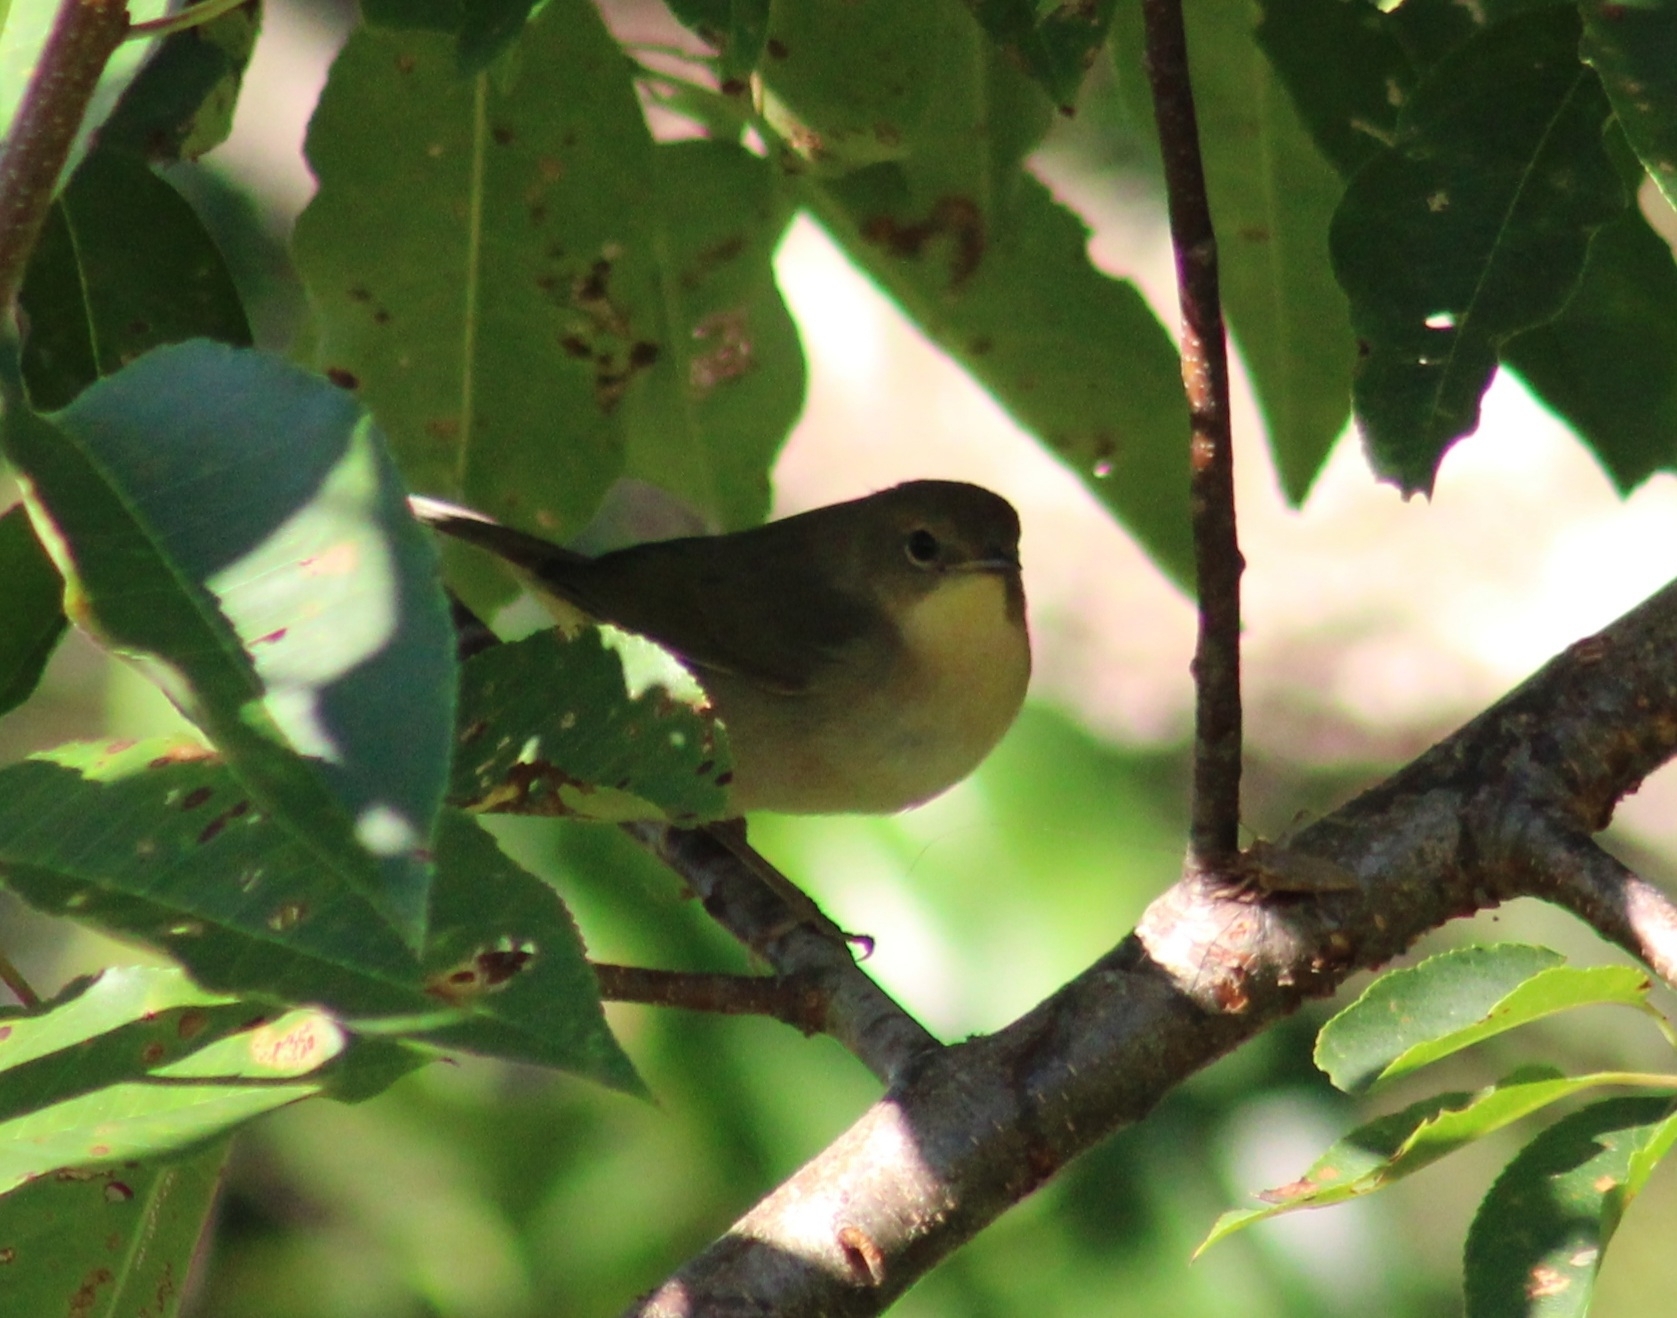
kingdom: Animalia
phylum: Chordata
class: Aves
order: Passeriformes
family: Parulidae
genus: Geothlypis
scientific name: Geothlypis trichas
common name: Common yellowthroat
